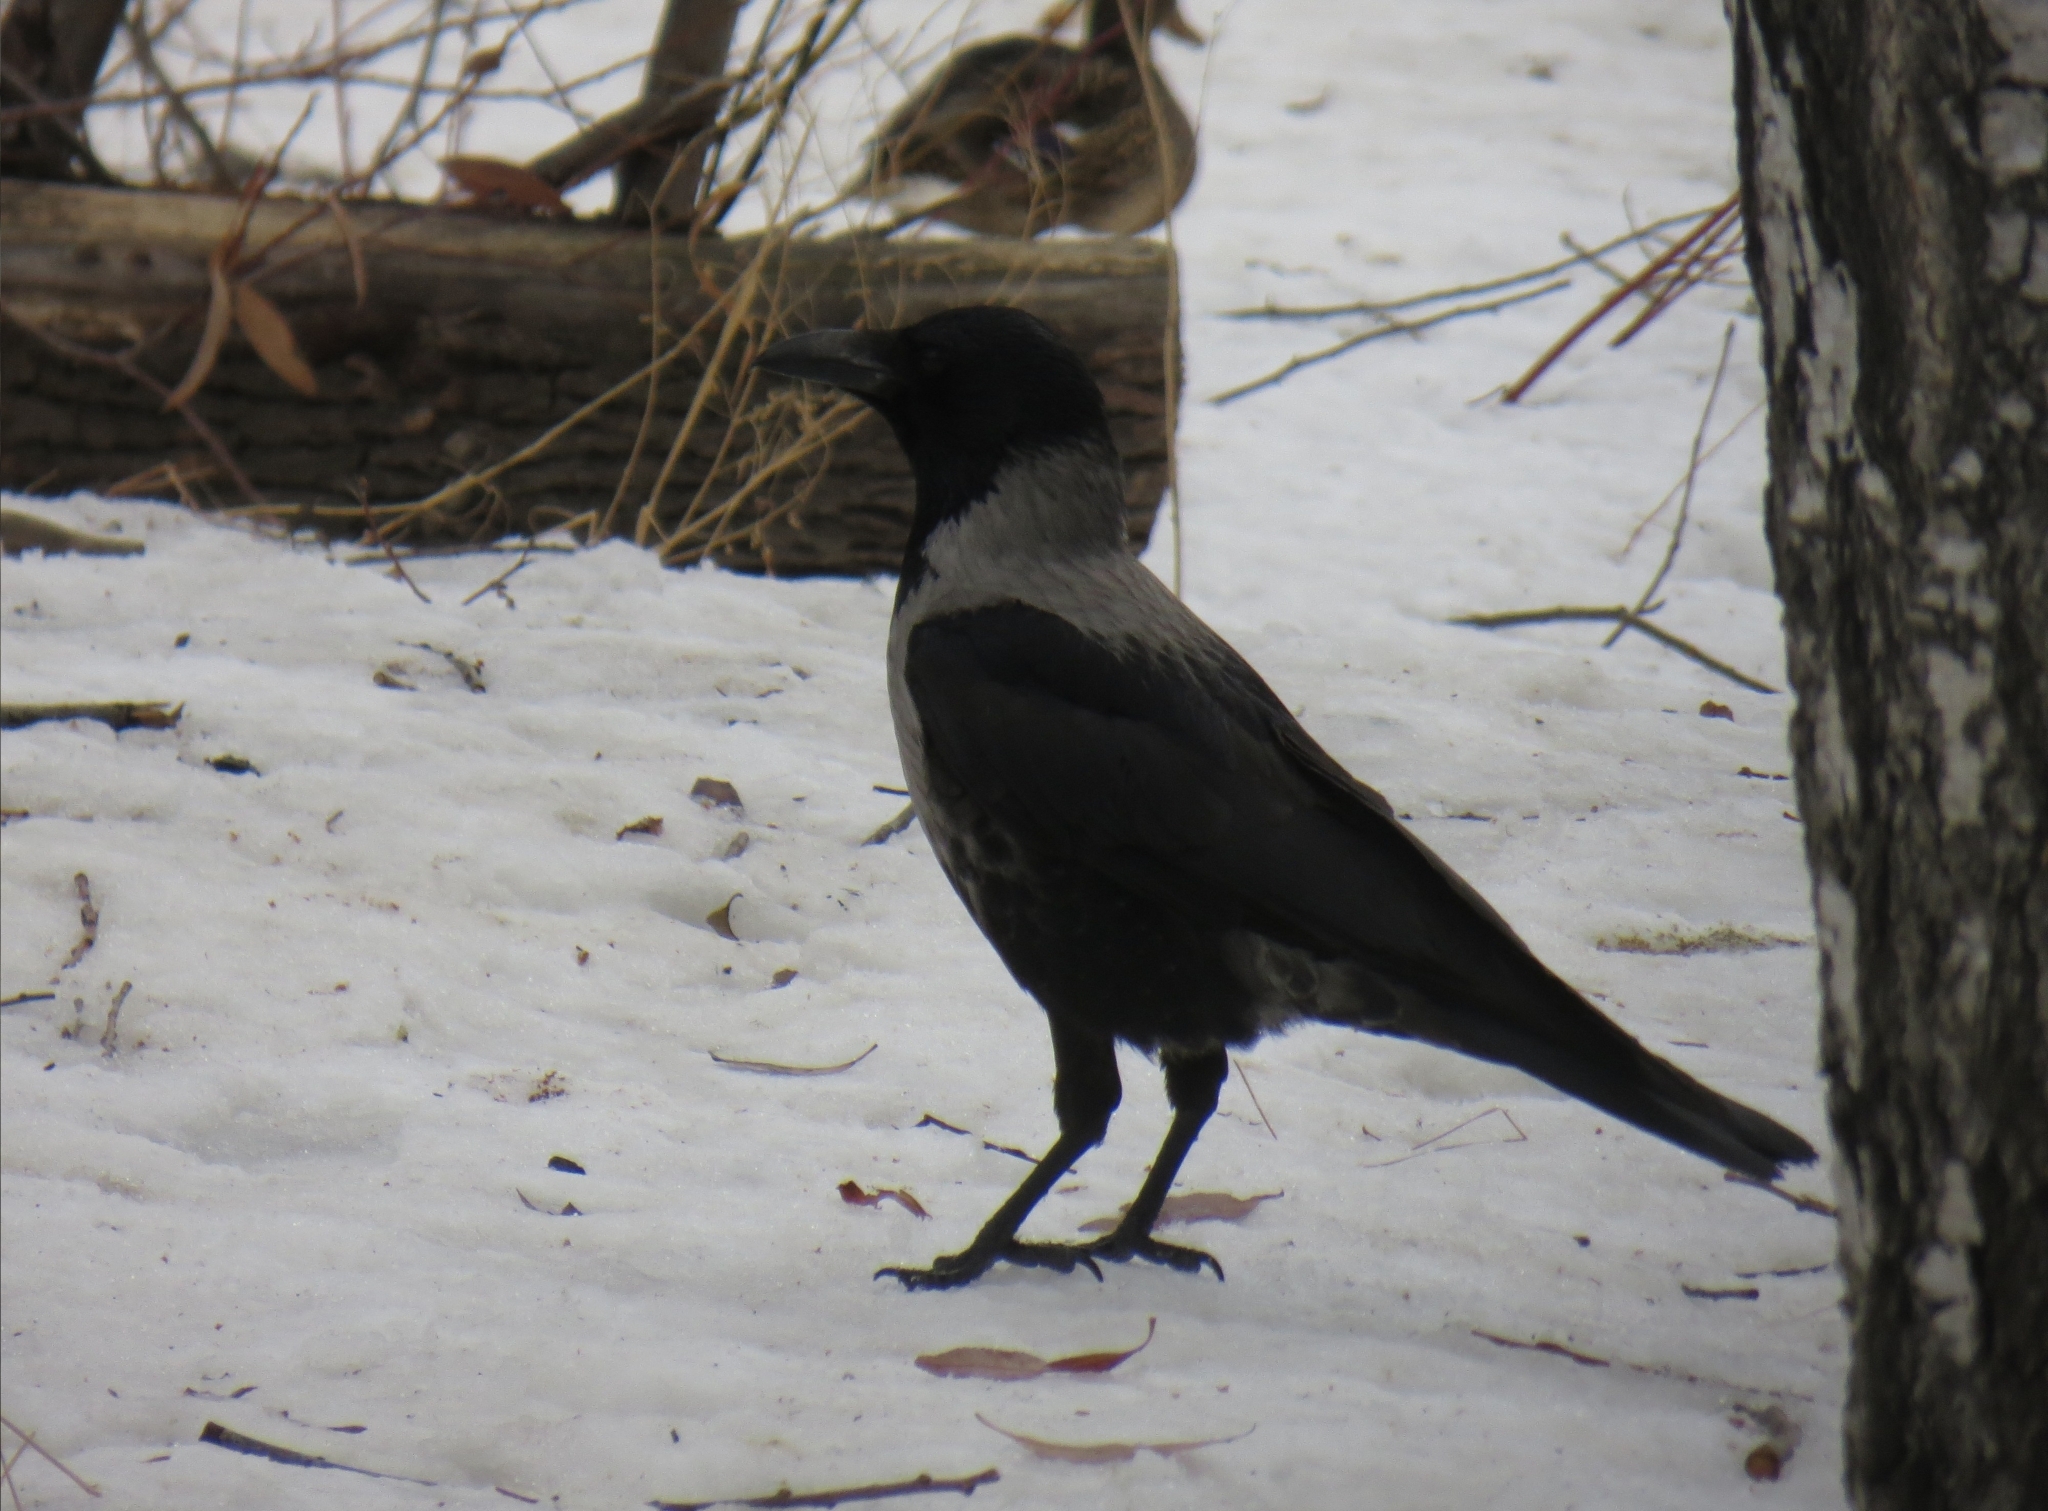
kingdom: Animalia
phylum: Chordata
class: Aves
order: Passeriformes
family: Corvidae
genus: Corvus
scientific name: Corvus
